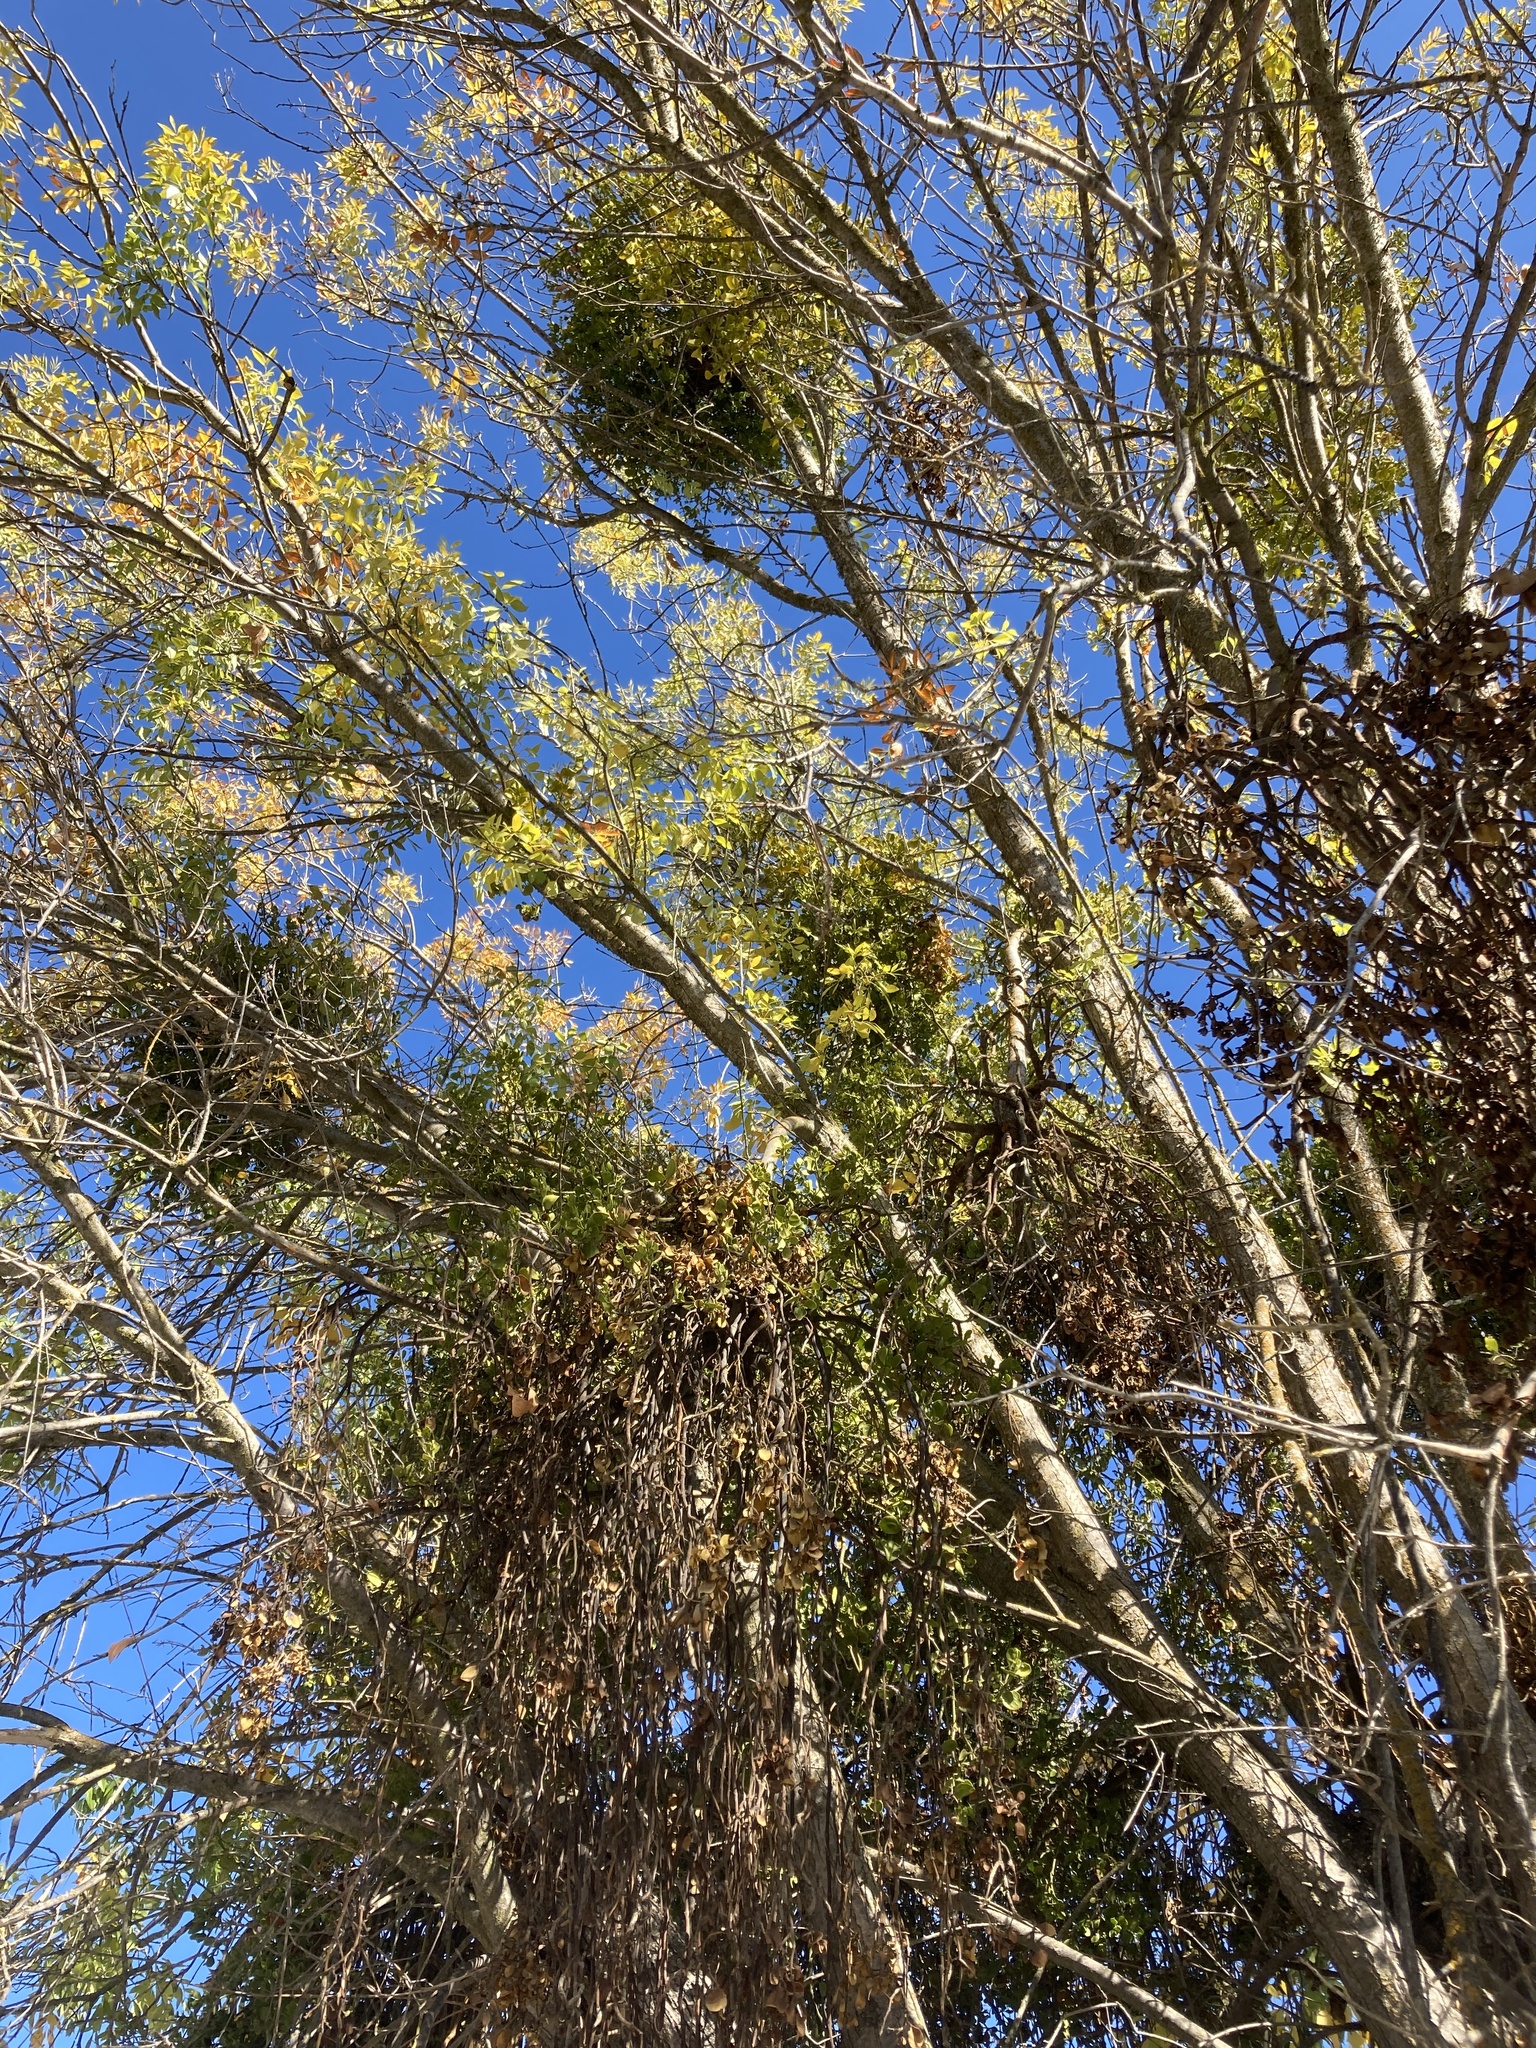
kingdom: Plantae
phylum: Tracheophyta
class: Magnoliopsida
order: Santalales
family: Viscaceae
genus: Phoradendron
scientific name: Phoradendron
